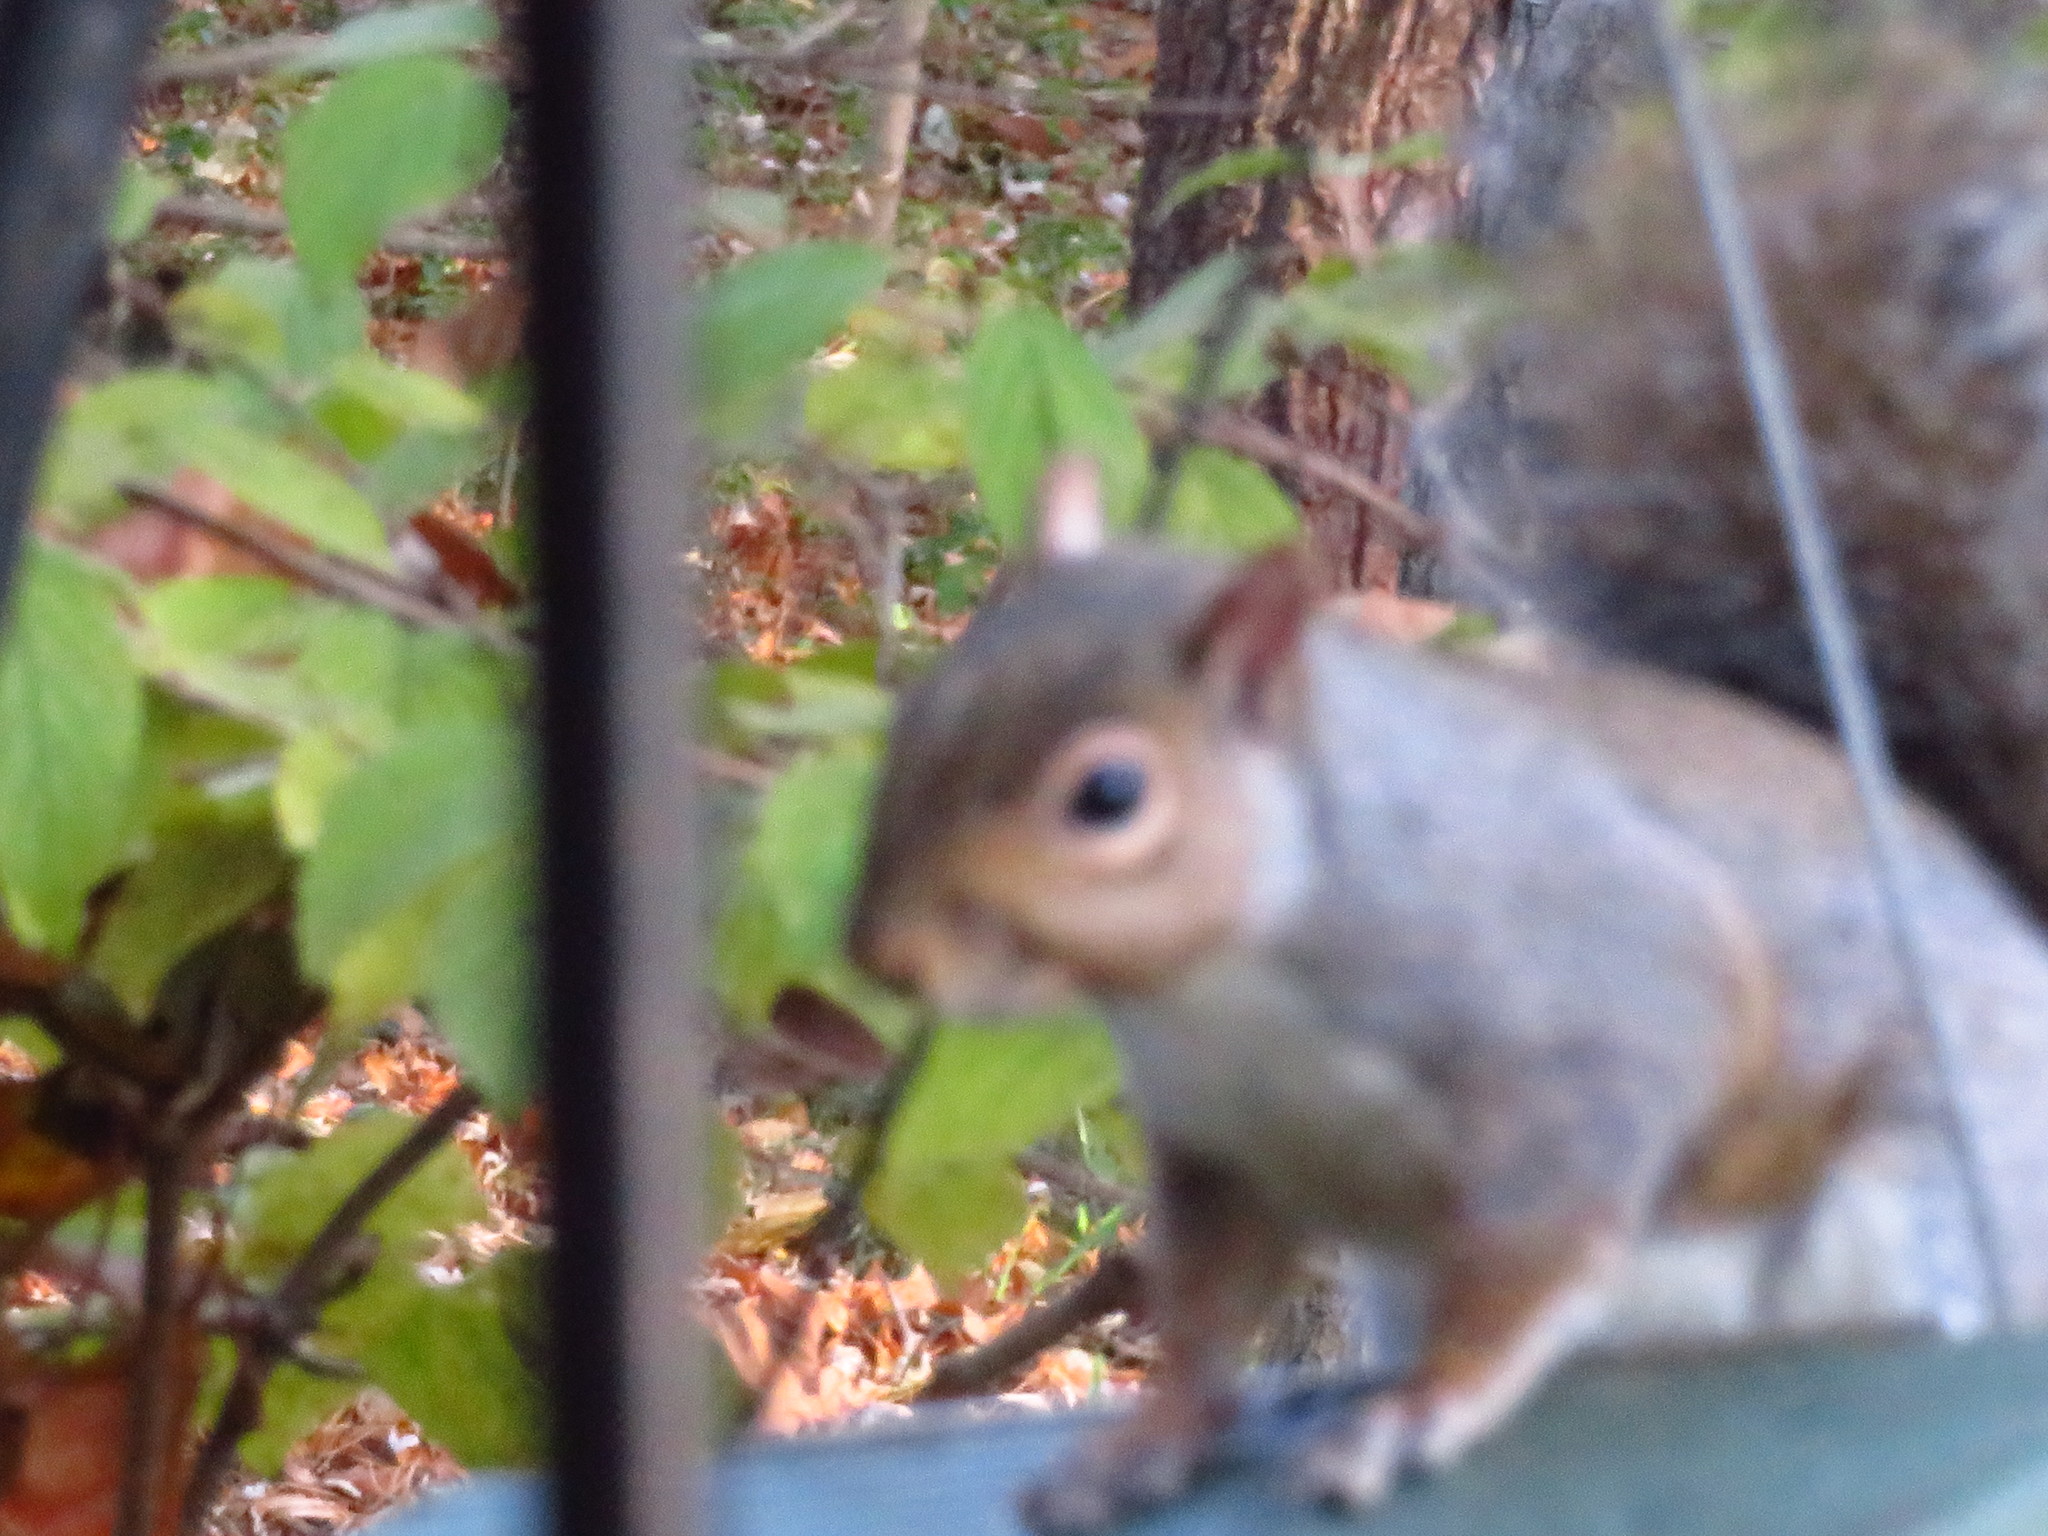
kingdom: Animalia
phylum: Chordata
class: Mammalia
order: Rodentia
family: Sciuridae
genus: Sciurus
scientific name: Sciurus carolinensis
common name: Eastern gray squirrel
